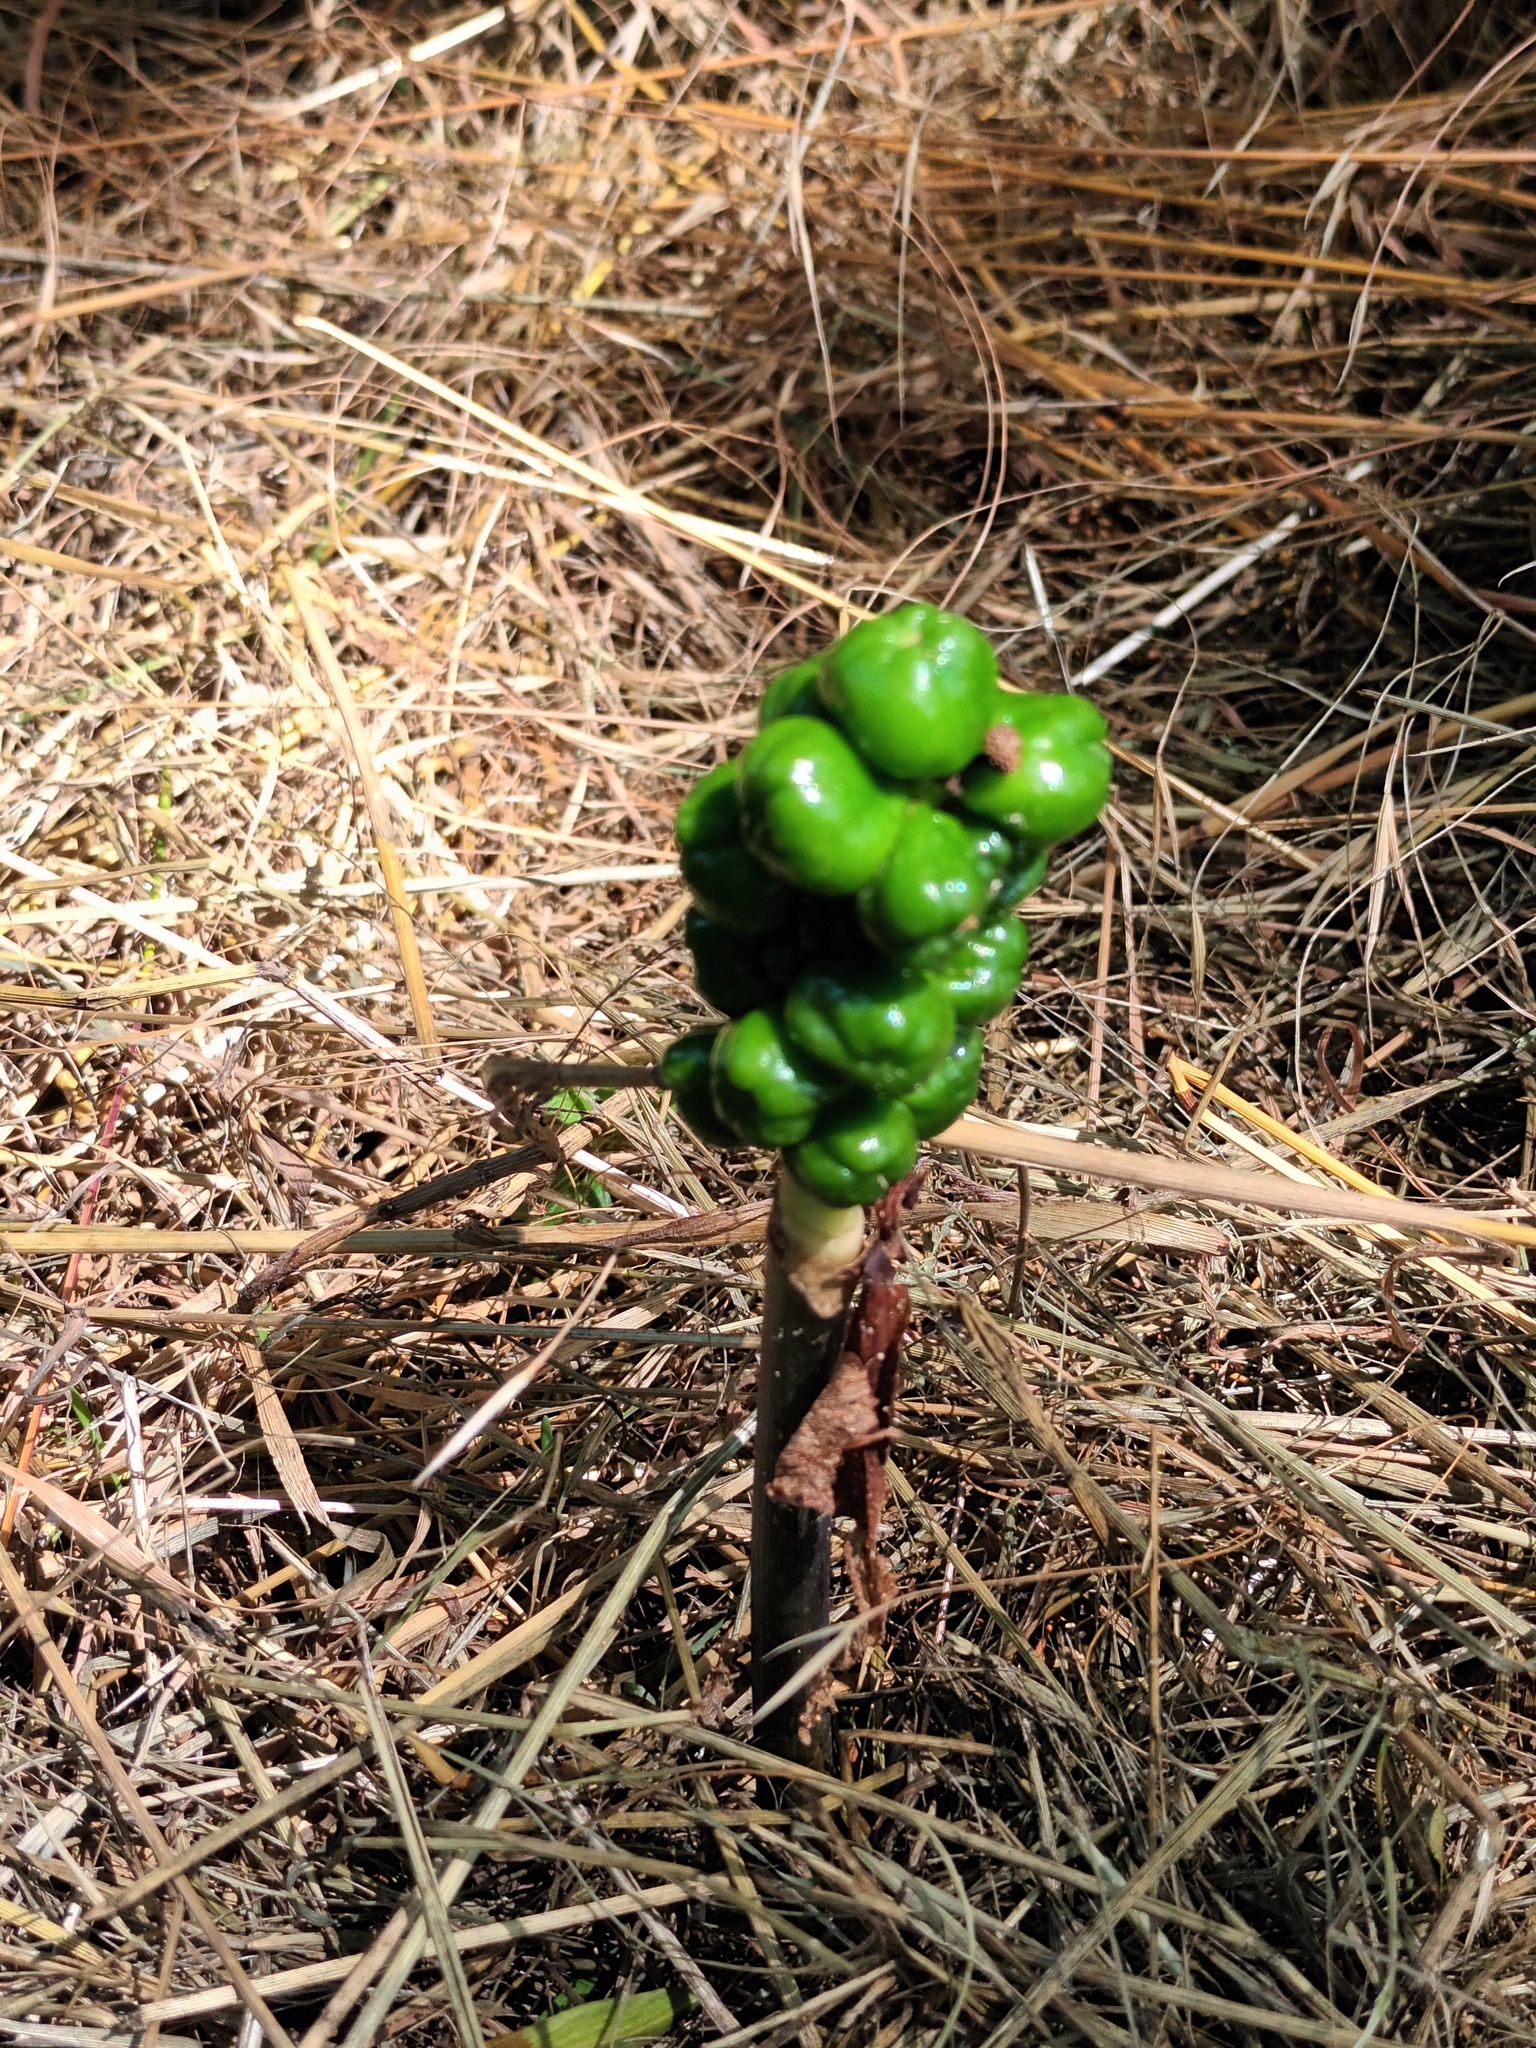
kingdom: Plantae
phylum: Tracheophyta
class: Liliopsida
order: Alismatales
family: Araceae
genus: Arum
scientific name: Arum maculatum
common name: Lords-and-ladies
